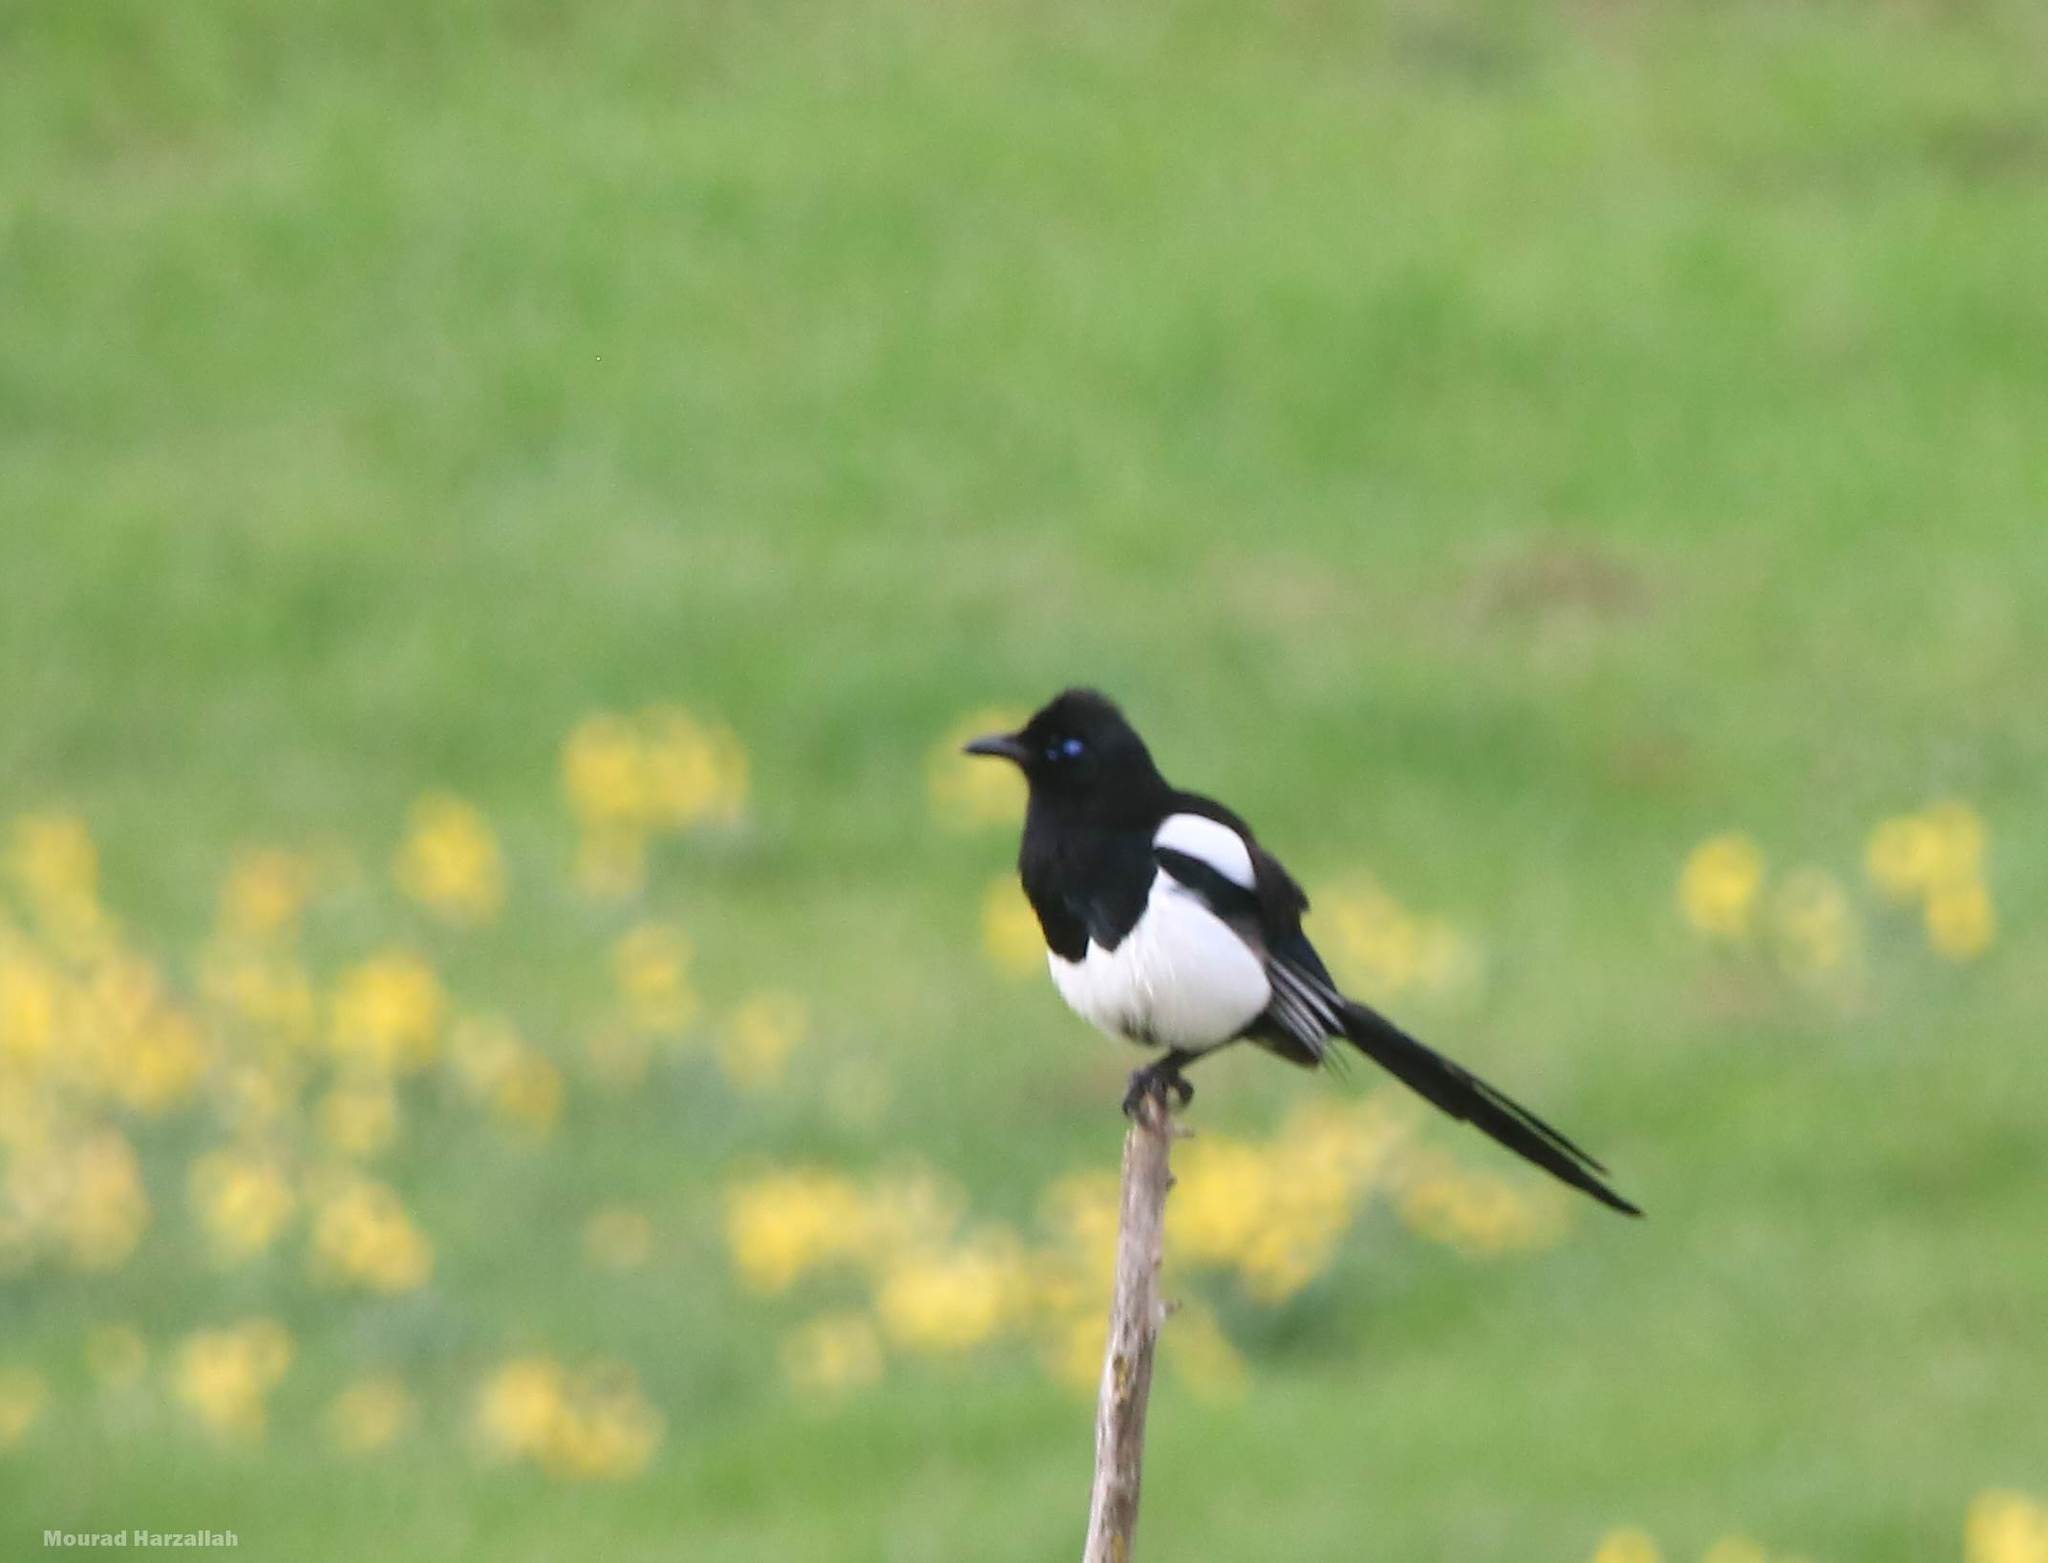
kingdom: Animalia
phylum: Chordata
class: Aves
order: Passeriformes
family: Corvidae
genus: Pica
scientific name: Pica mauritanica
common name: Maghreb magpie
